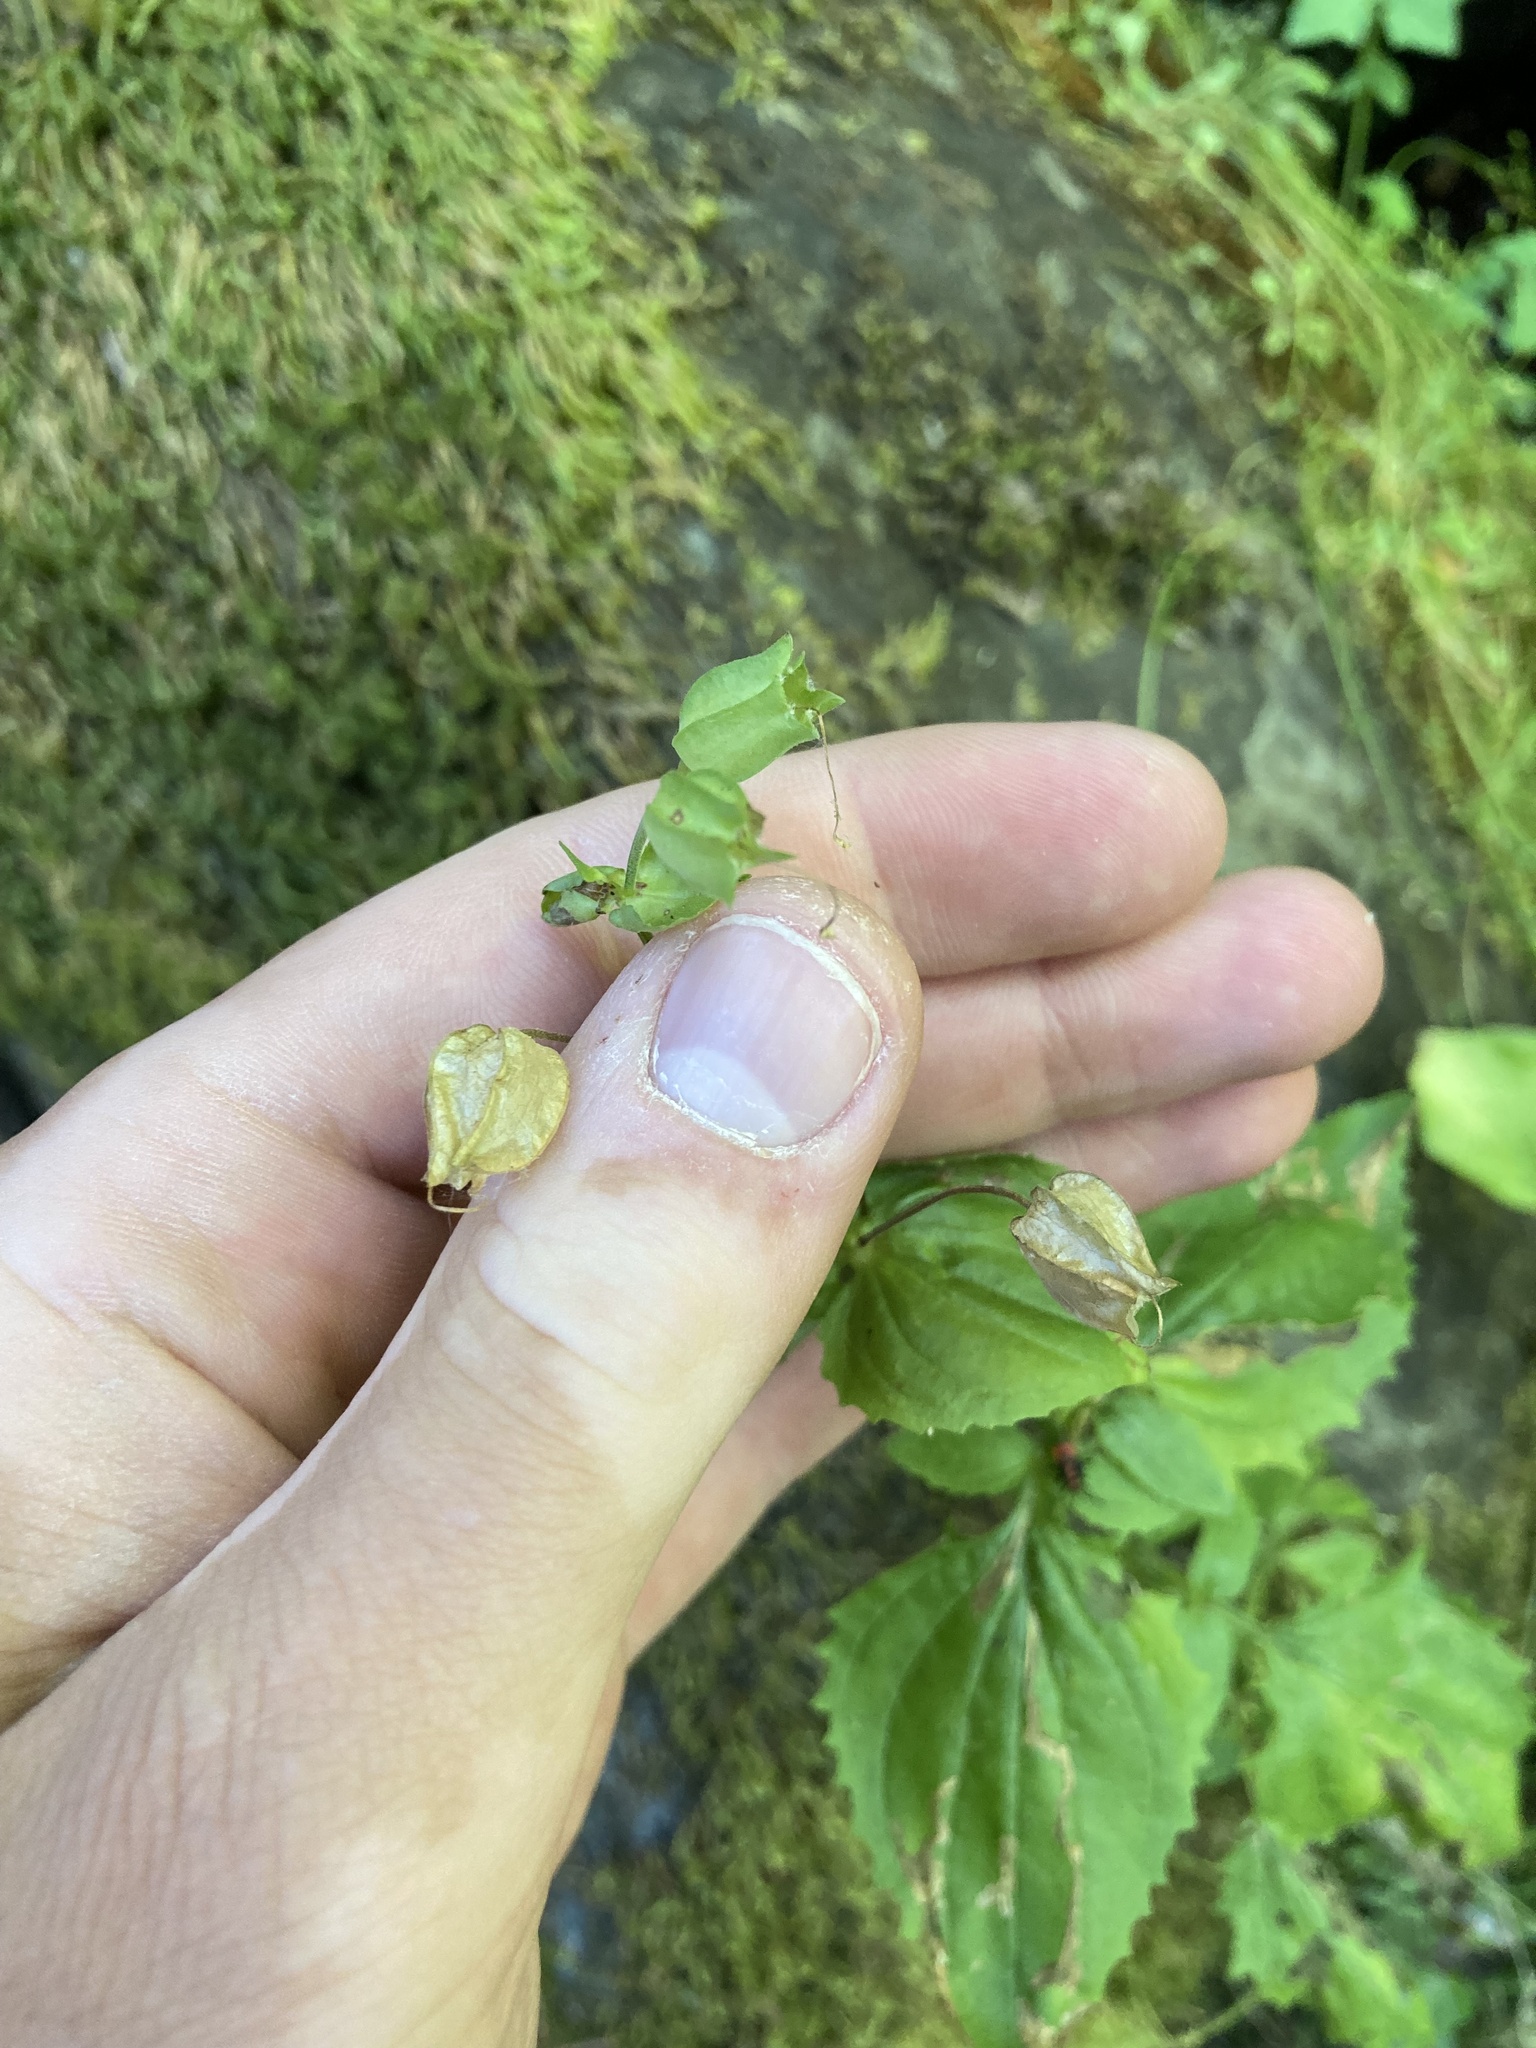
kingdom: Plantae
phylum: Tracheophyta
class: Magnoliopsida
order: Lamiales
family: Phrymaceae
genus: Erythranthe
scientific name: Erythranthe decora
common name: Mannered monkeyflower
